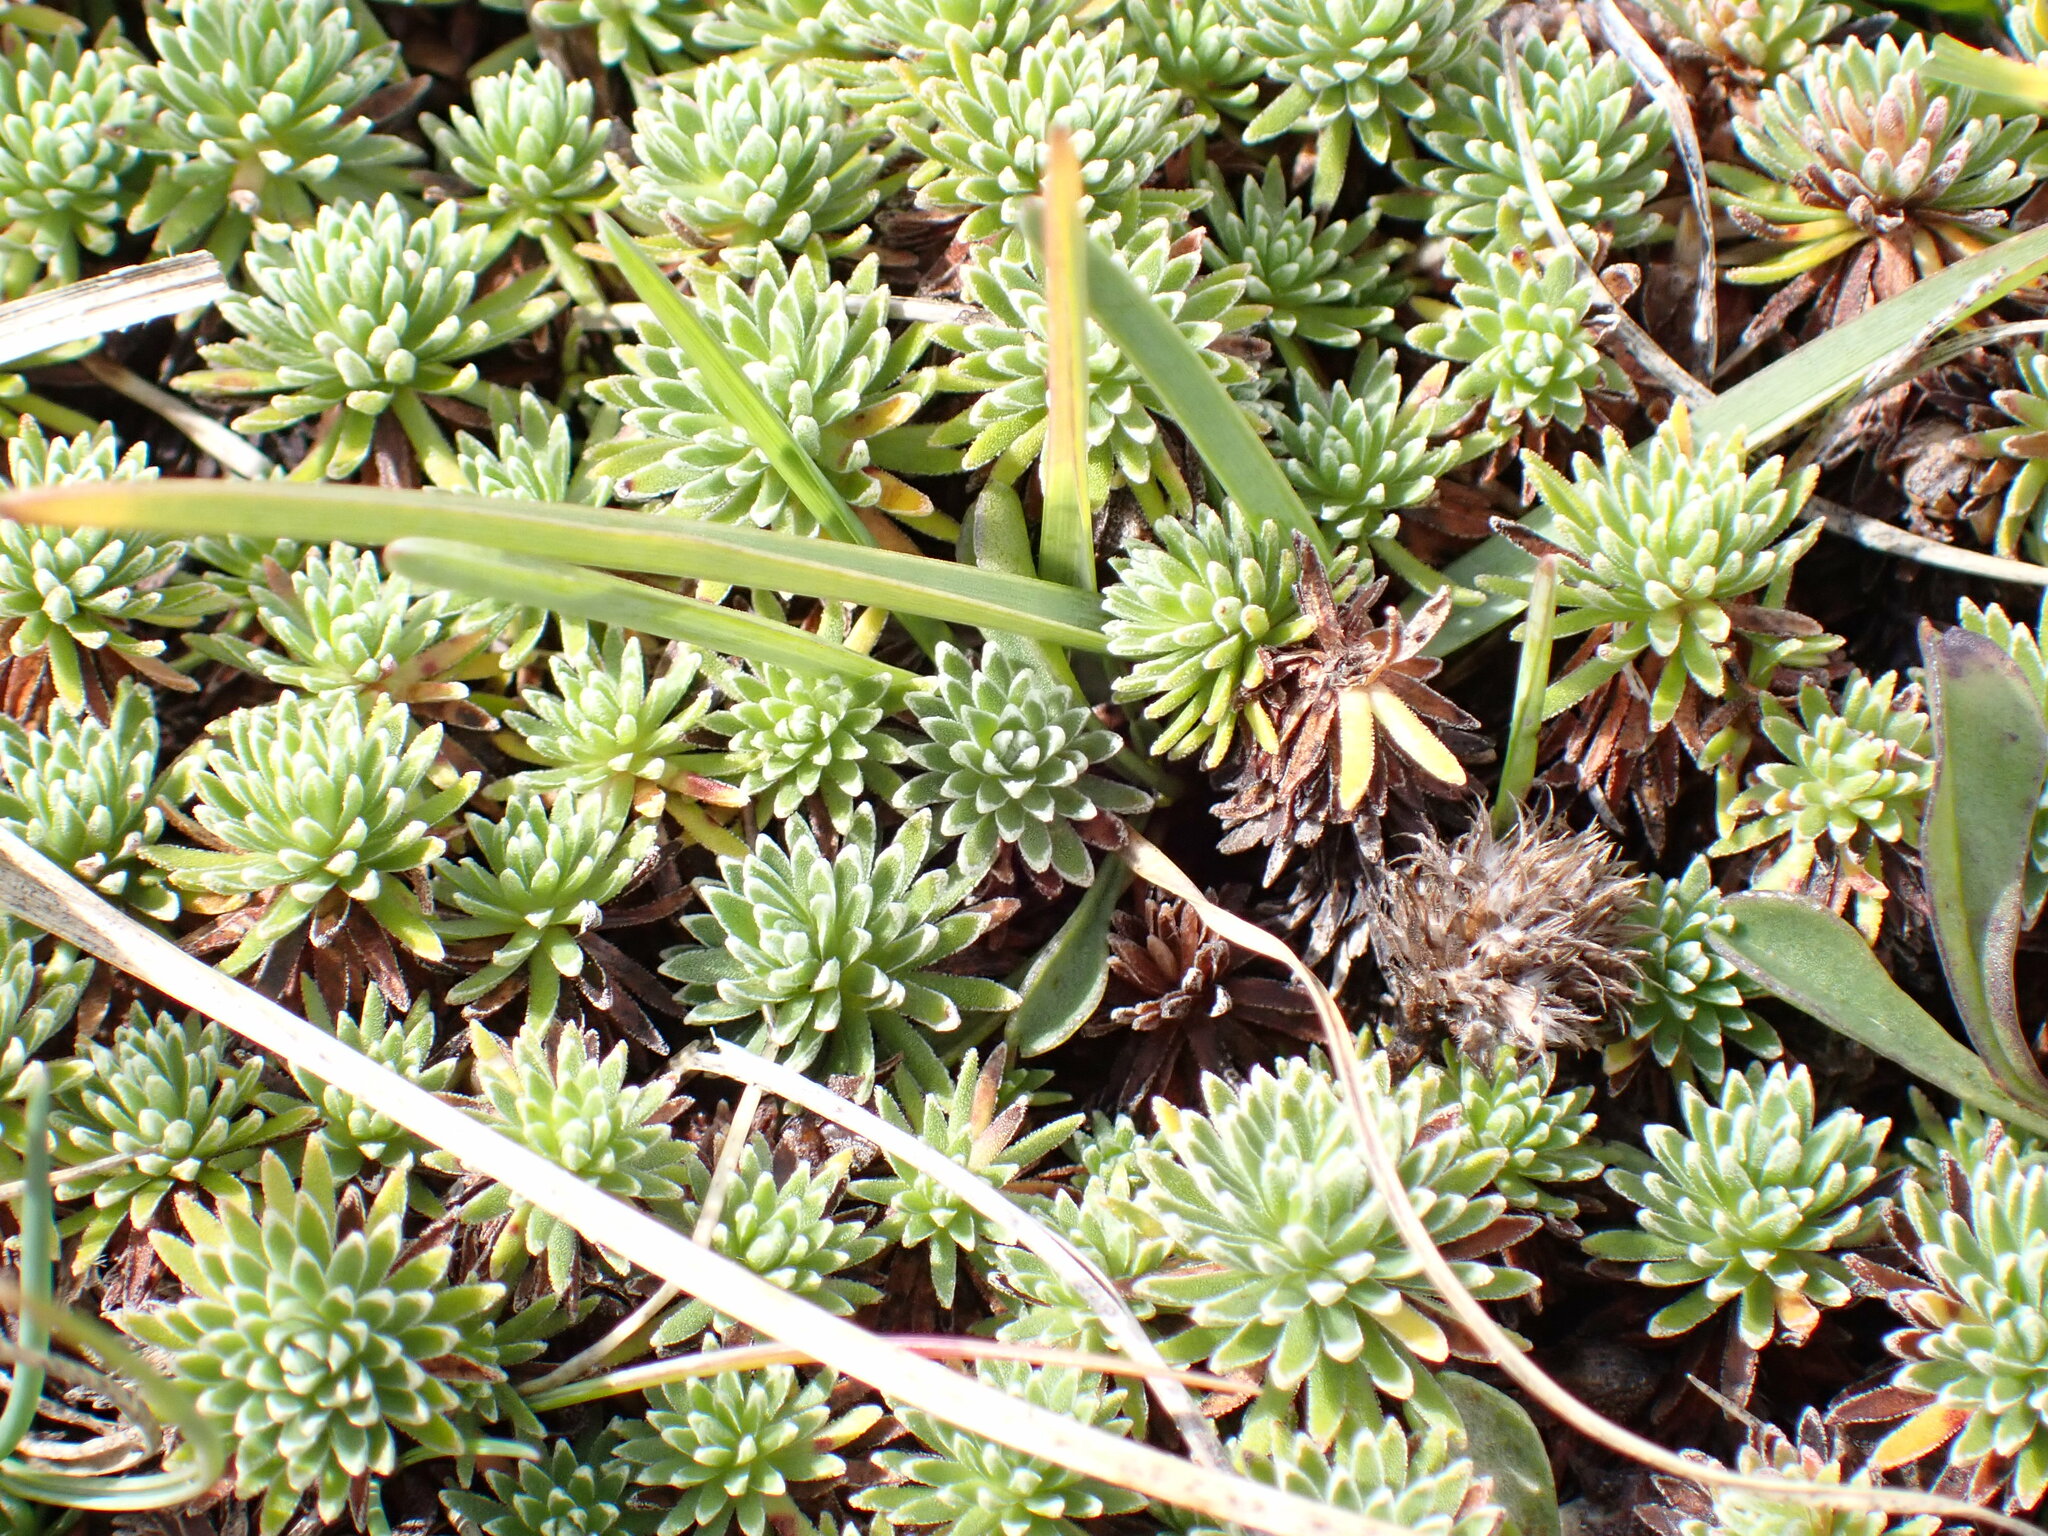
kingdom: Plantae
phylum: Tracheophyta
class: Magnoliopsida
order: Ericales
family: Primulaceae
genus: Androsace
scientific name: Androsace vitaliana
